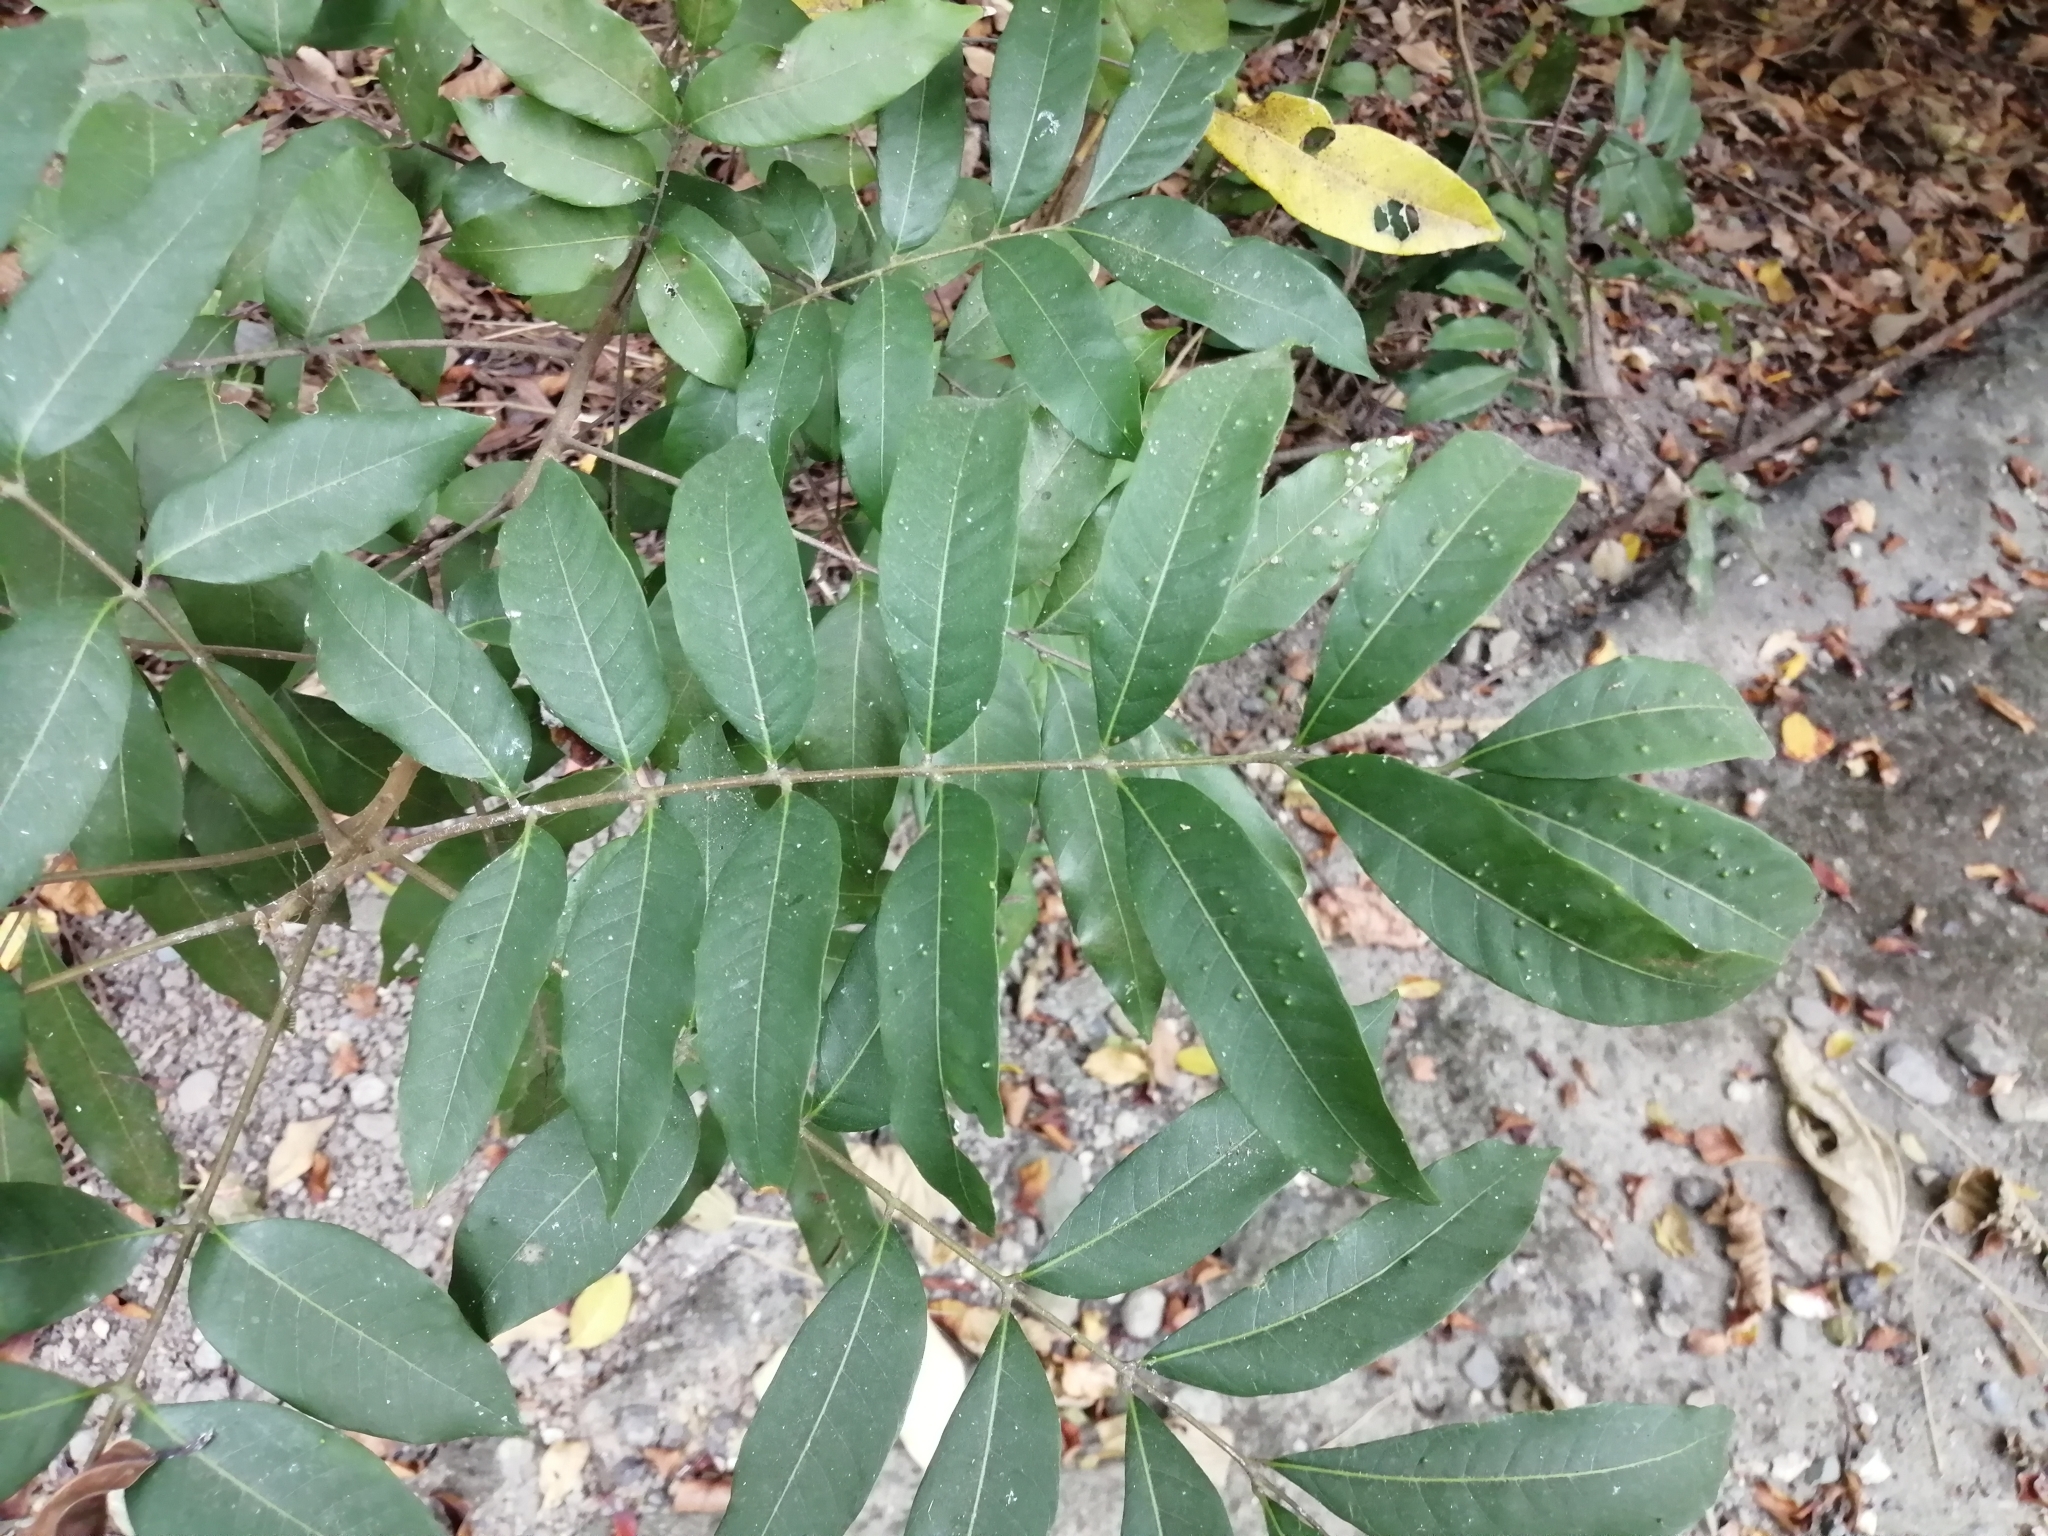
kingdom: Plantae
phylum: Tracheophyta
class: Magnoliopsida
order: Sapindales
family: Sapindaceae
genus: Sapindus
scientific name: Sapindus mukorossi
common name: Chinese soapberry
